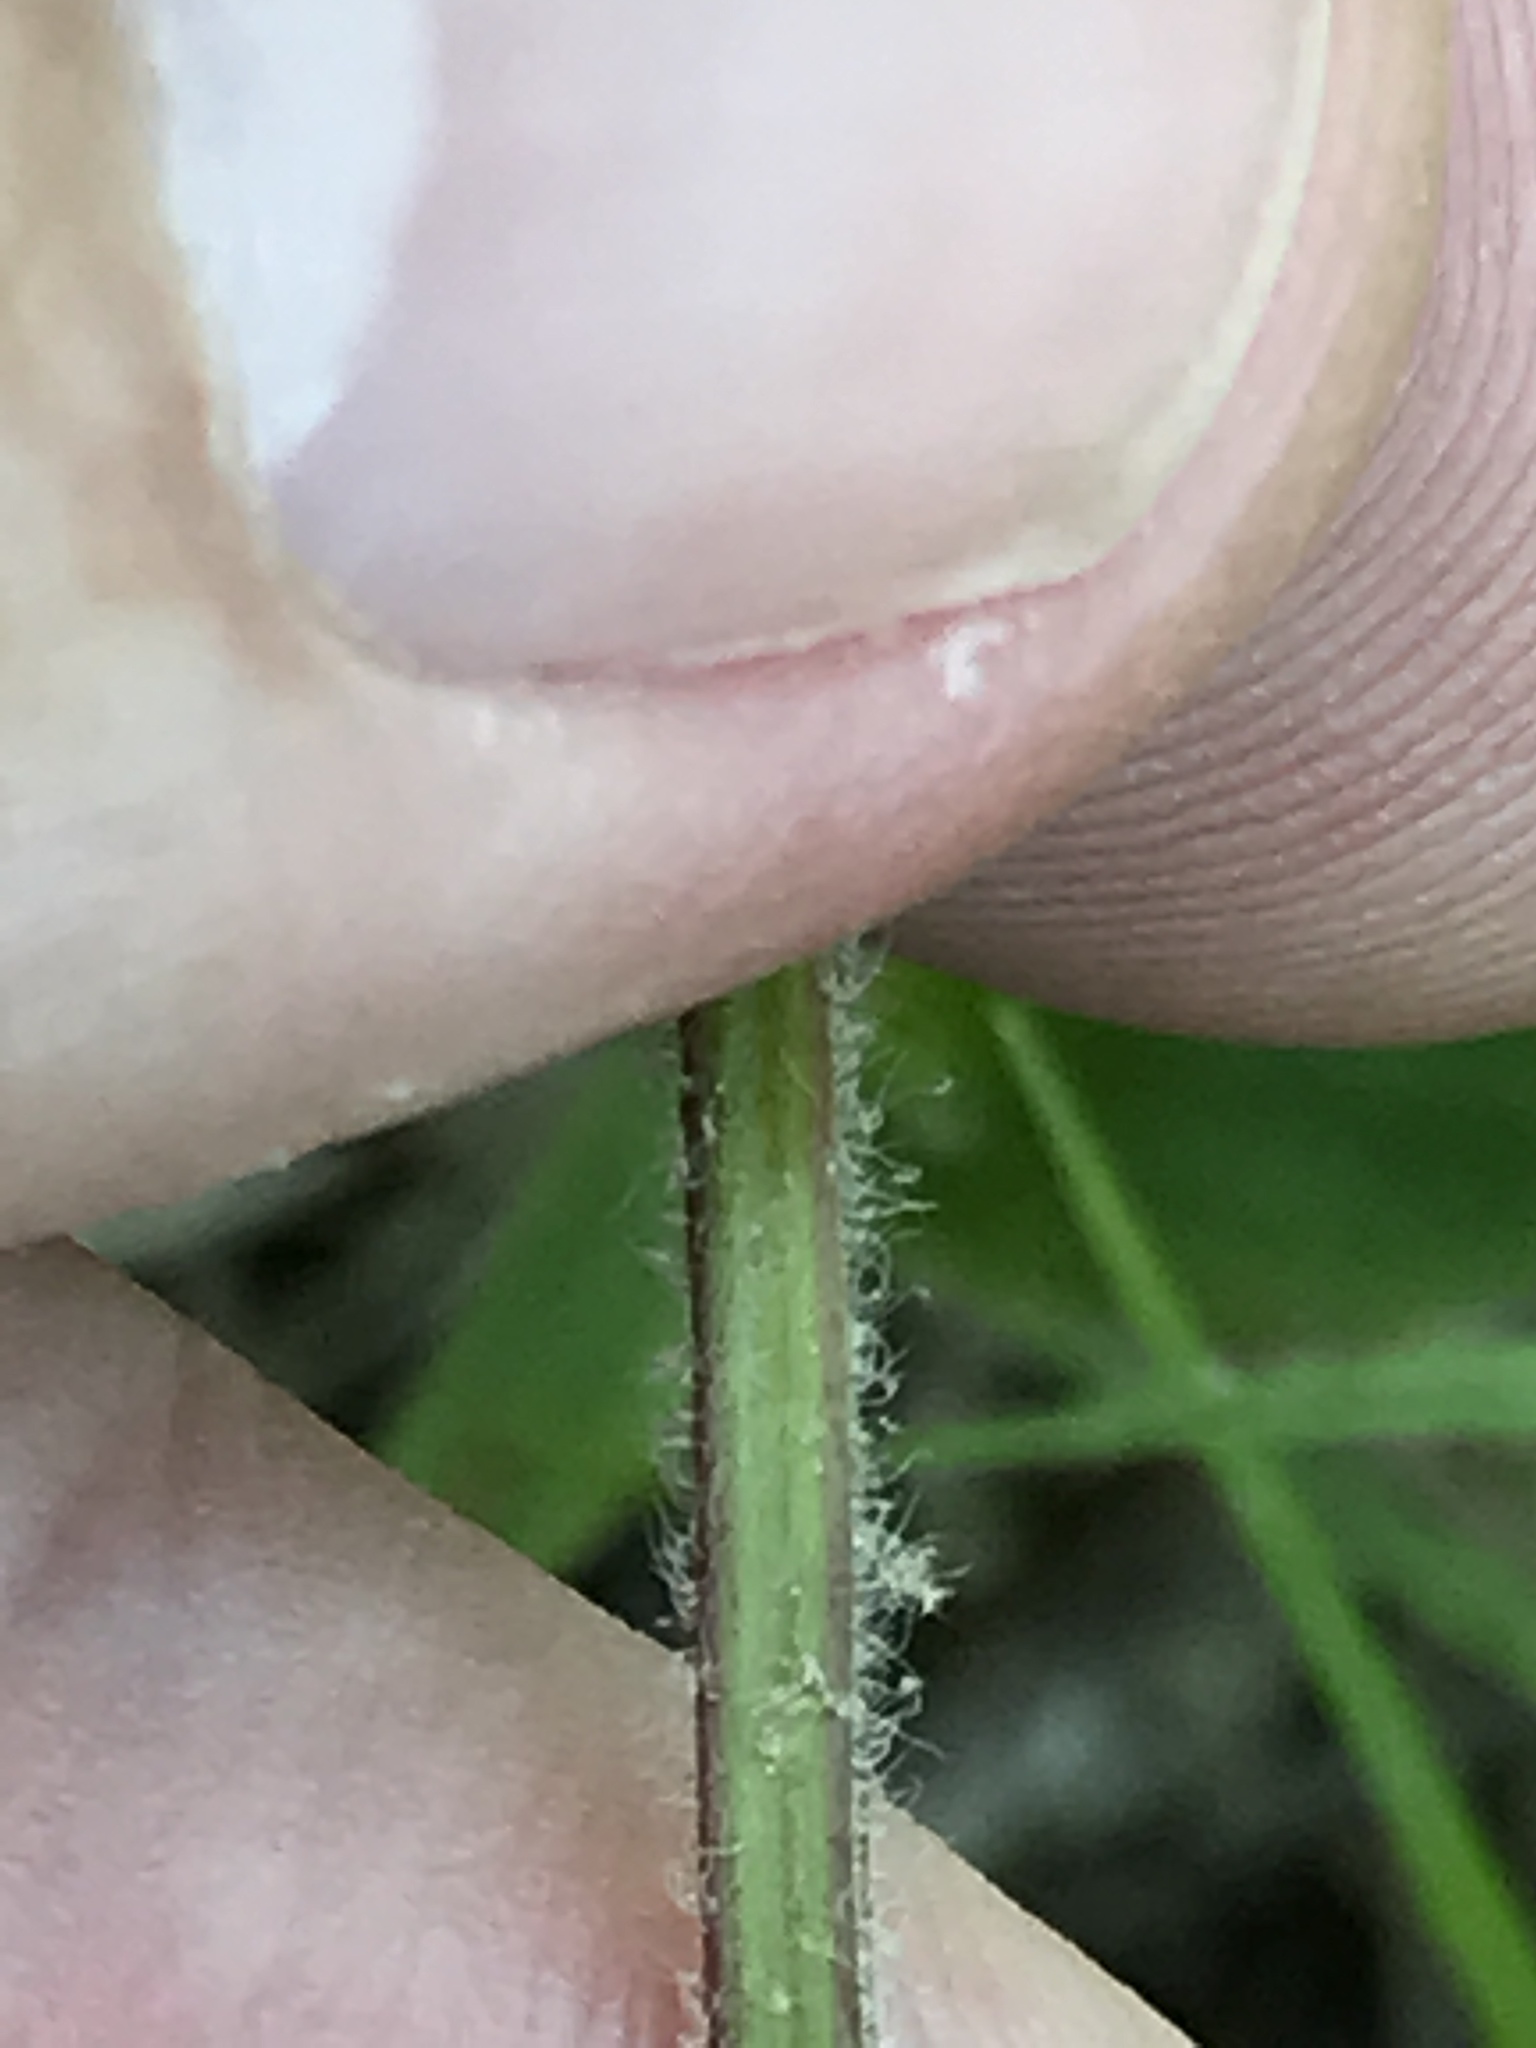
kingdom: Plantae
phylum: Tracheophyta
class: Magnoliopsida
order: Lamiales
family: Lamiaceae
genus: Scutellaria
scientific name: Scutellaria elliptica
